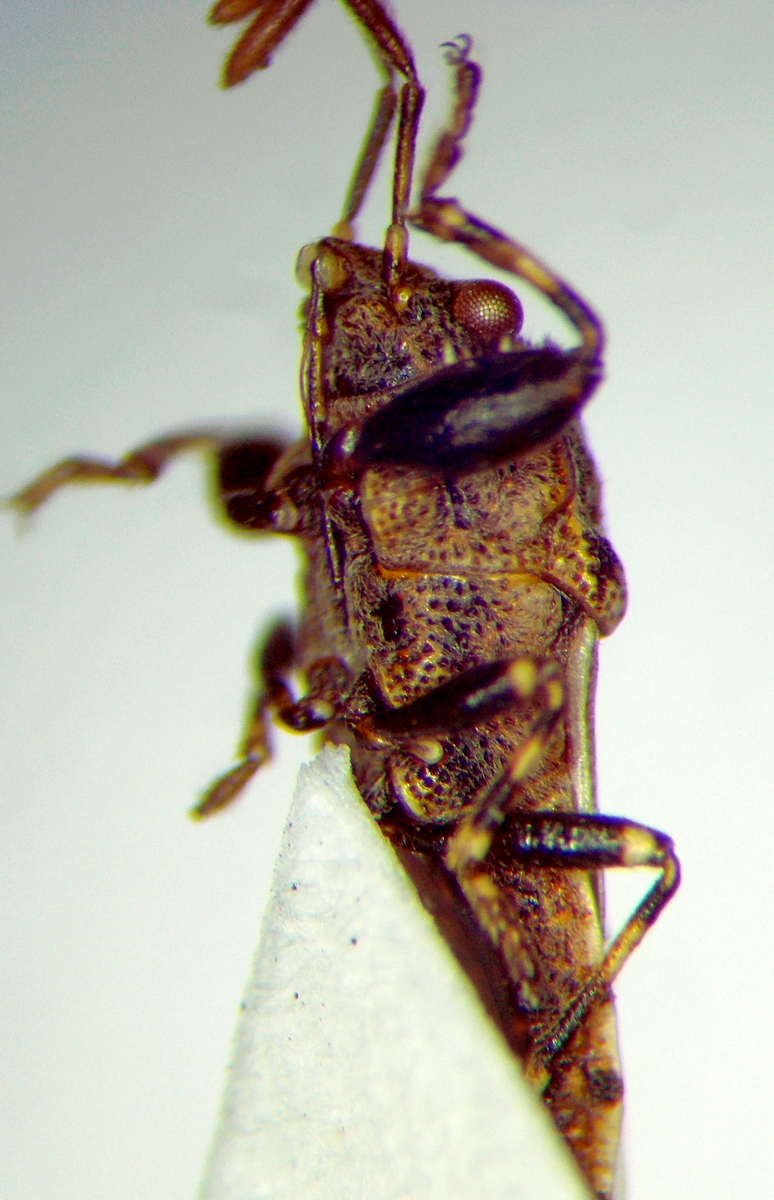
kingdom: Animalia
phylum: Arthropoda
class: Insecta
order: Hemiptera
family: Pachygronthidae
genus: Phlegyas
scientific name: Phlegyas annulicrus
